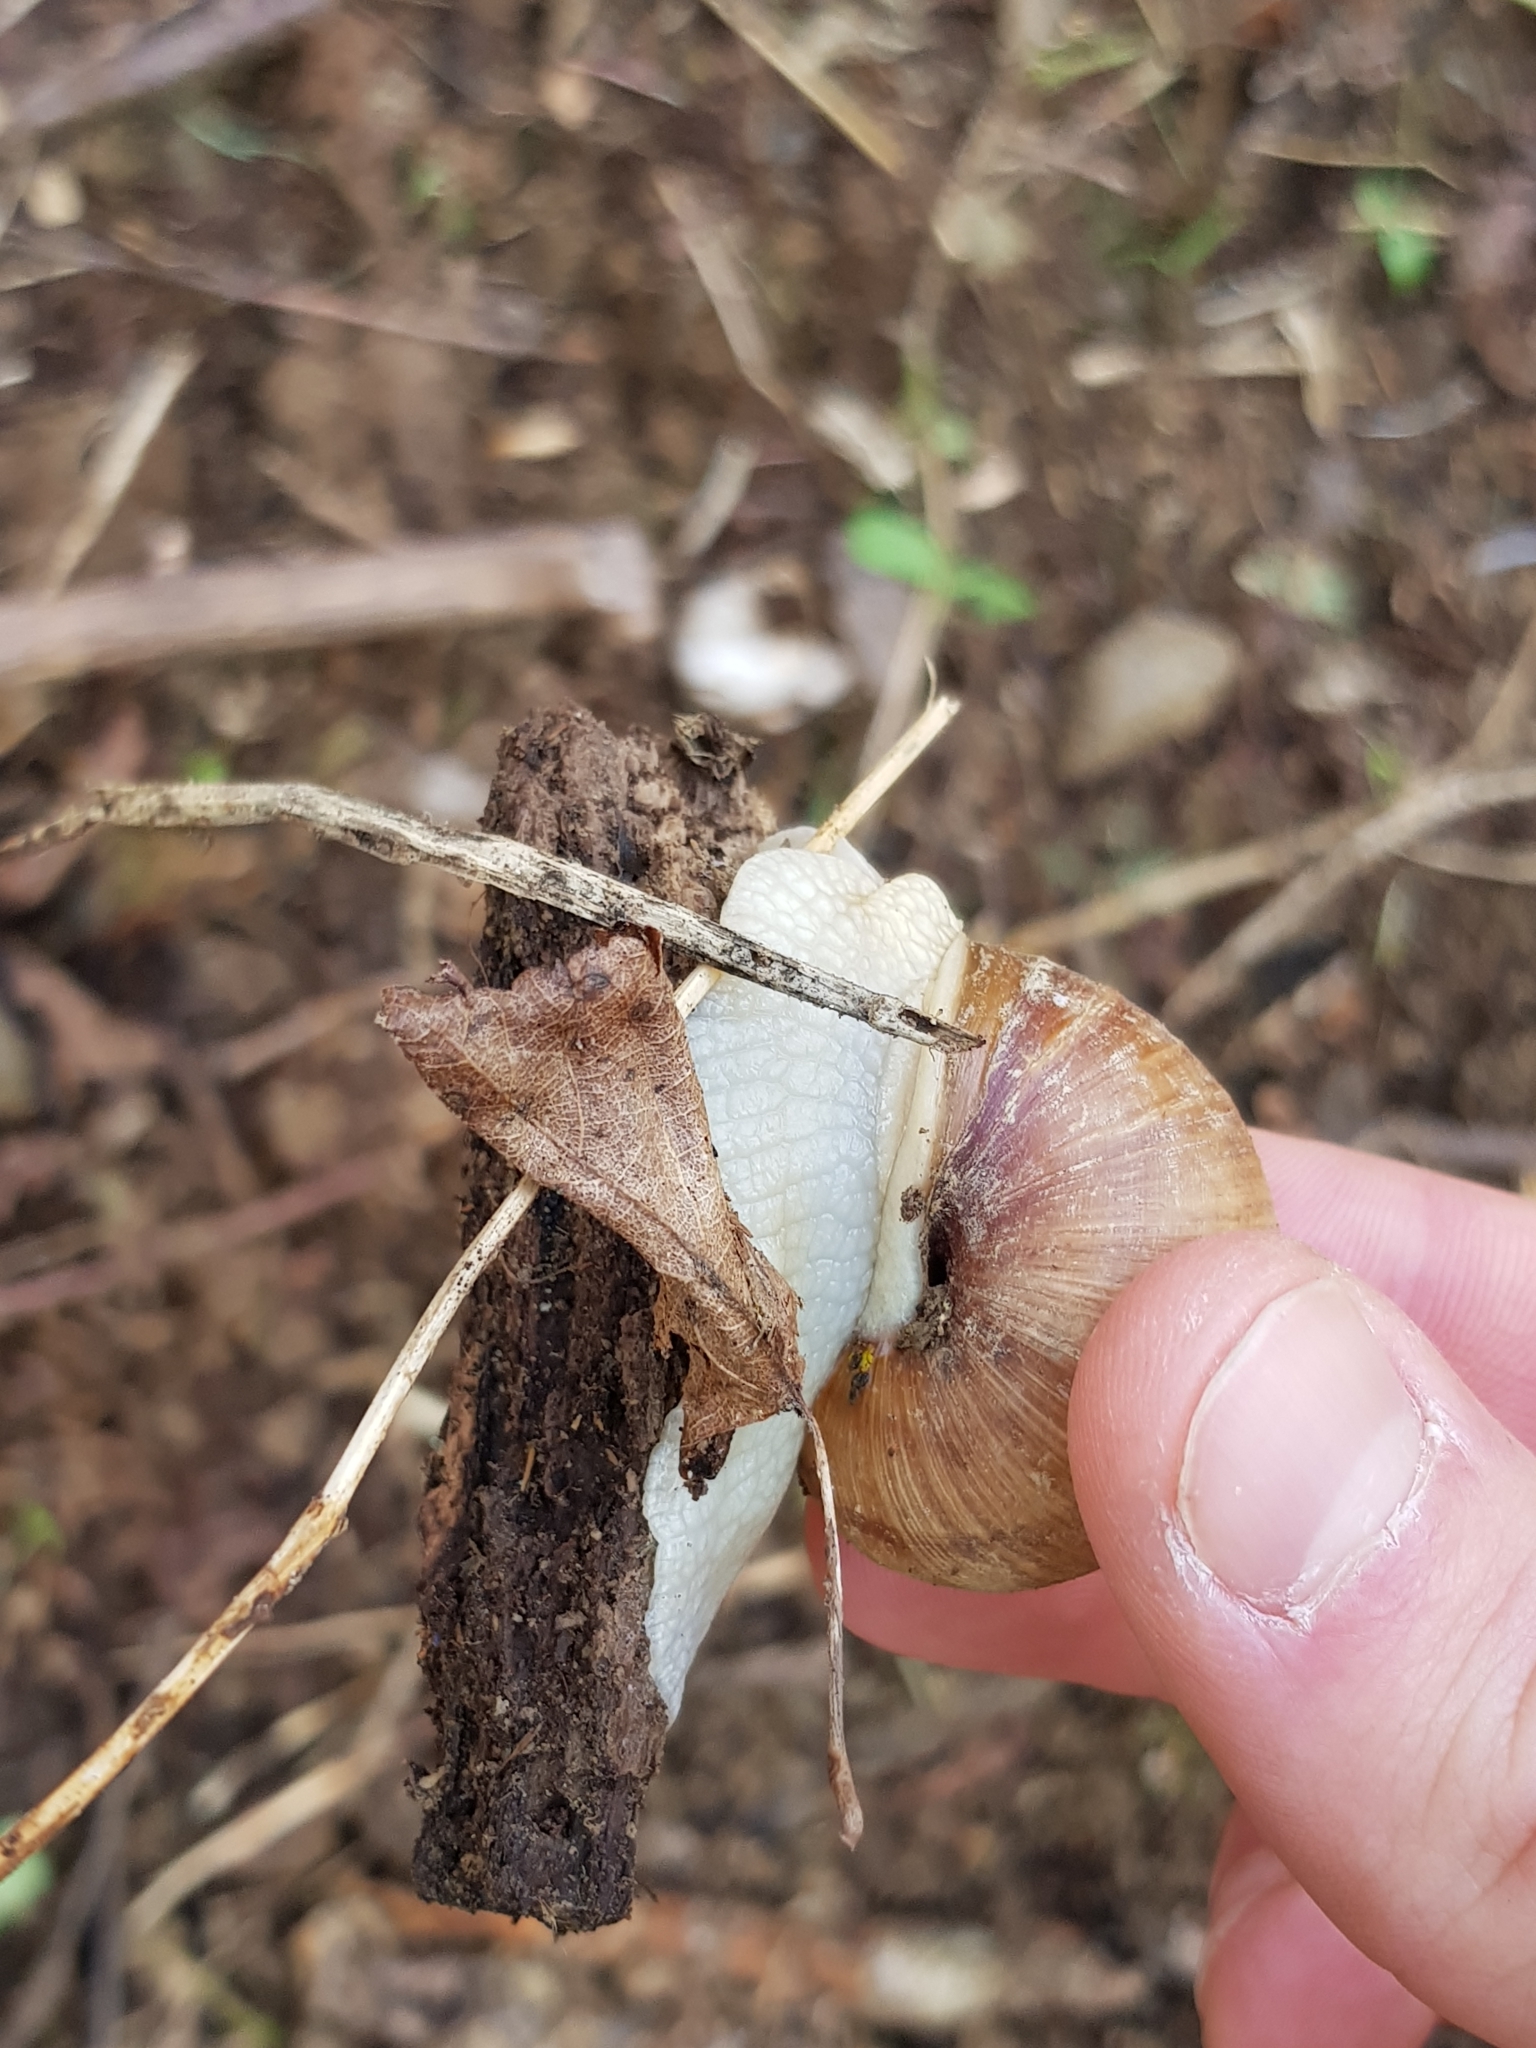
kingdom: Animalia
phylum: Mollusca
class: Gastropoda
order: Stylommatophora
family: Helicidae
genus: Helix
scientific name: Helix pomatia
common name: Roman snail
